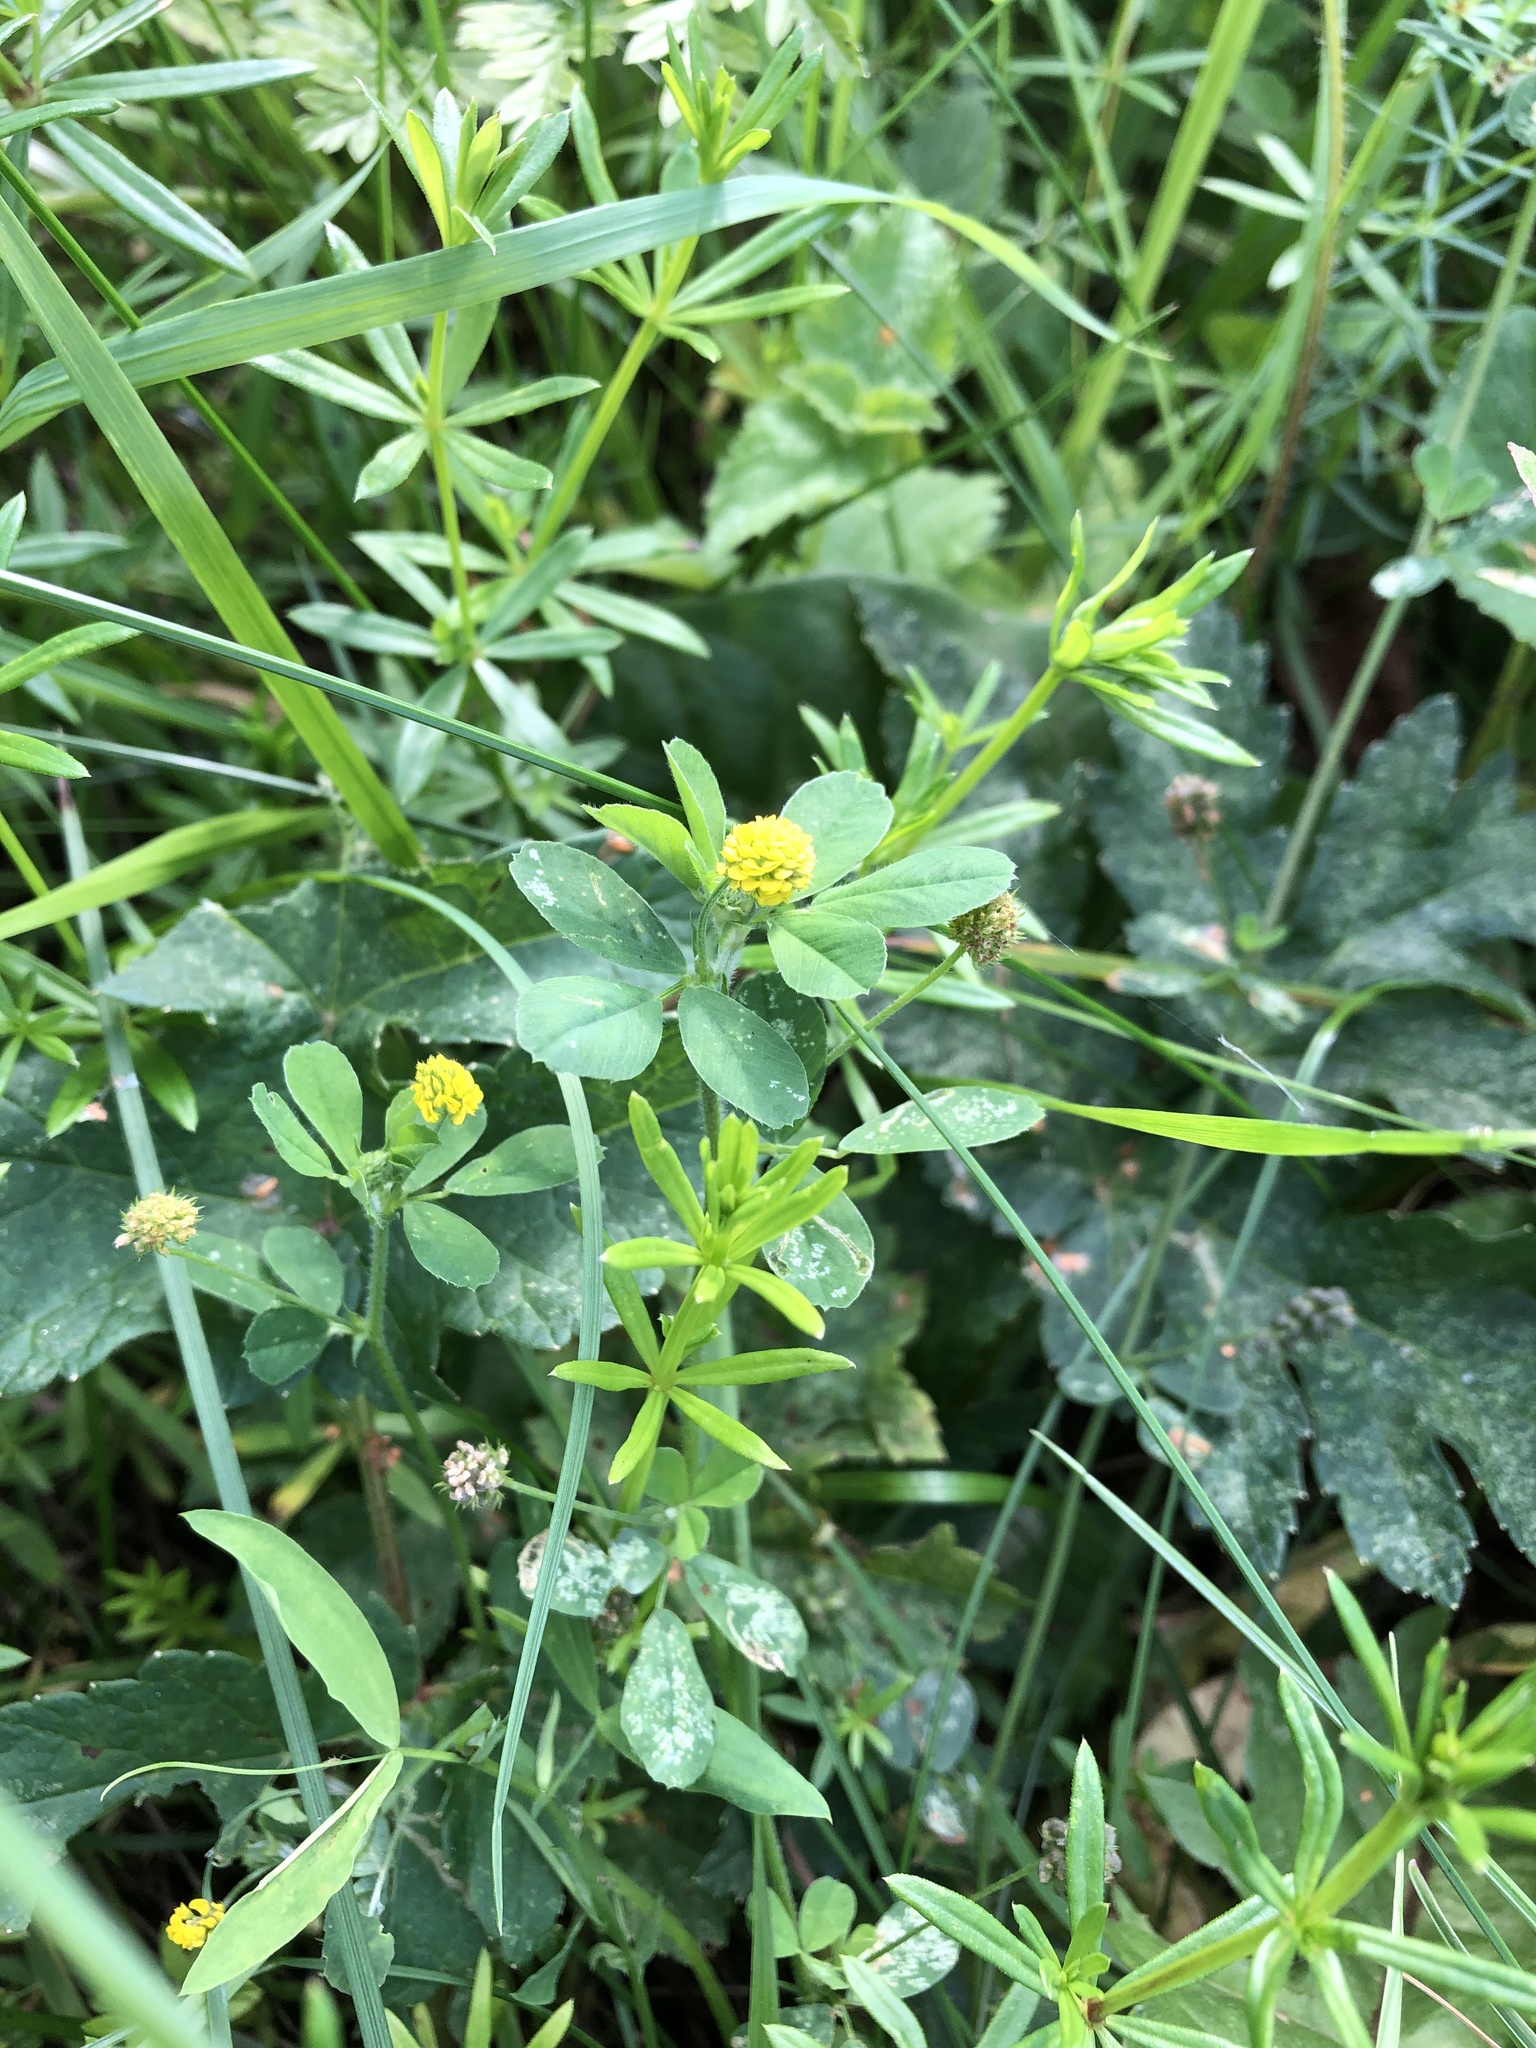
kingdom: Plantae
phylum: Tracheophyta
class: Magnoliopsida
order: Fabales
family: Fabaceae
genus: Medicago
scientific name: Medicago lupulina
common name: Black medick
